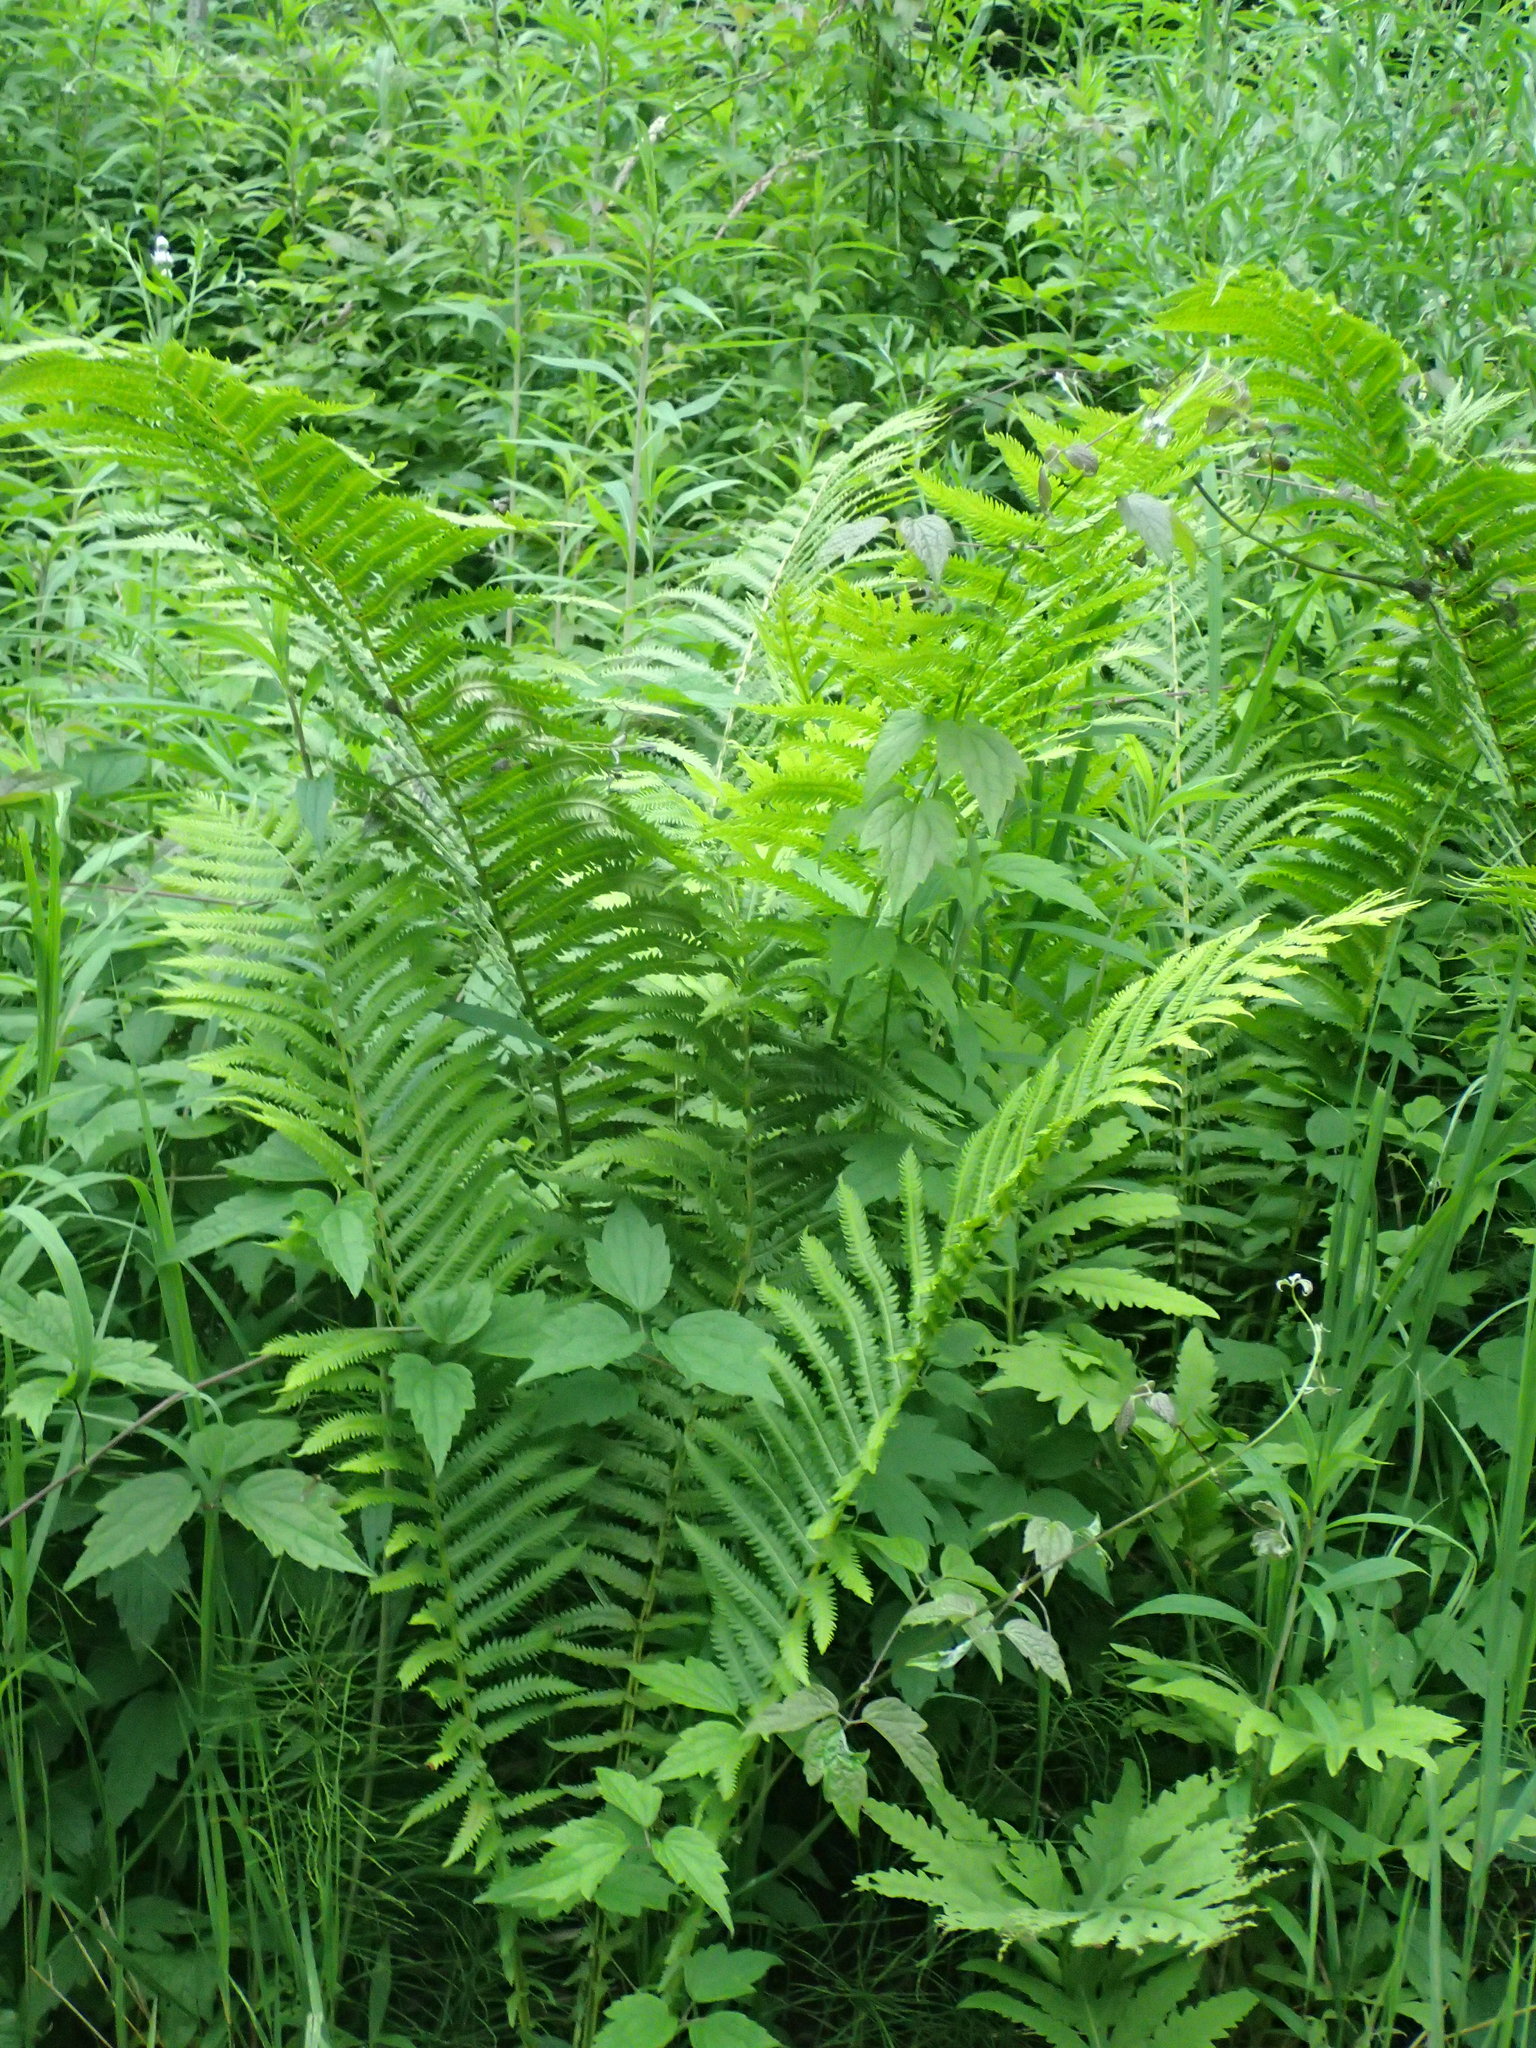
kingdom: Plantae
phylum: Tracheophyta
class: Polypodiopsida
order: Polypodiales
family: Onocleaceae
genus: Matteuccia
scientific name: Matteuccia struthiopteris
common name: Ostrich fern
